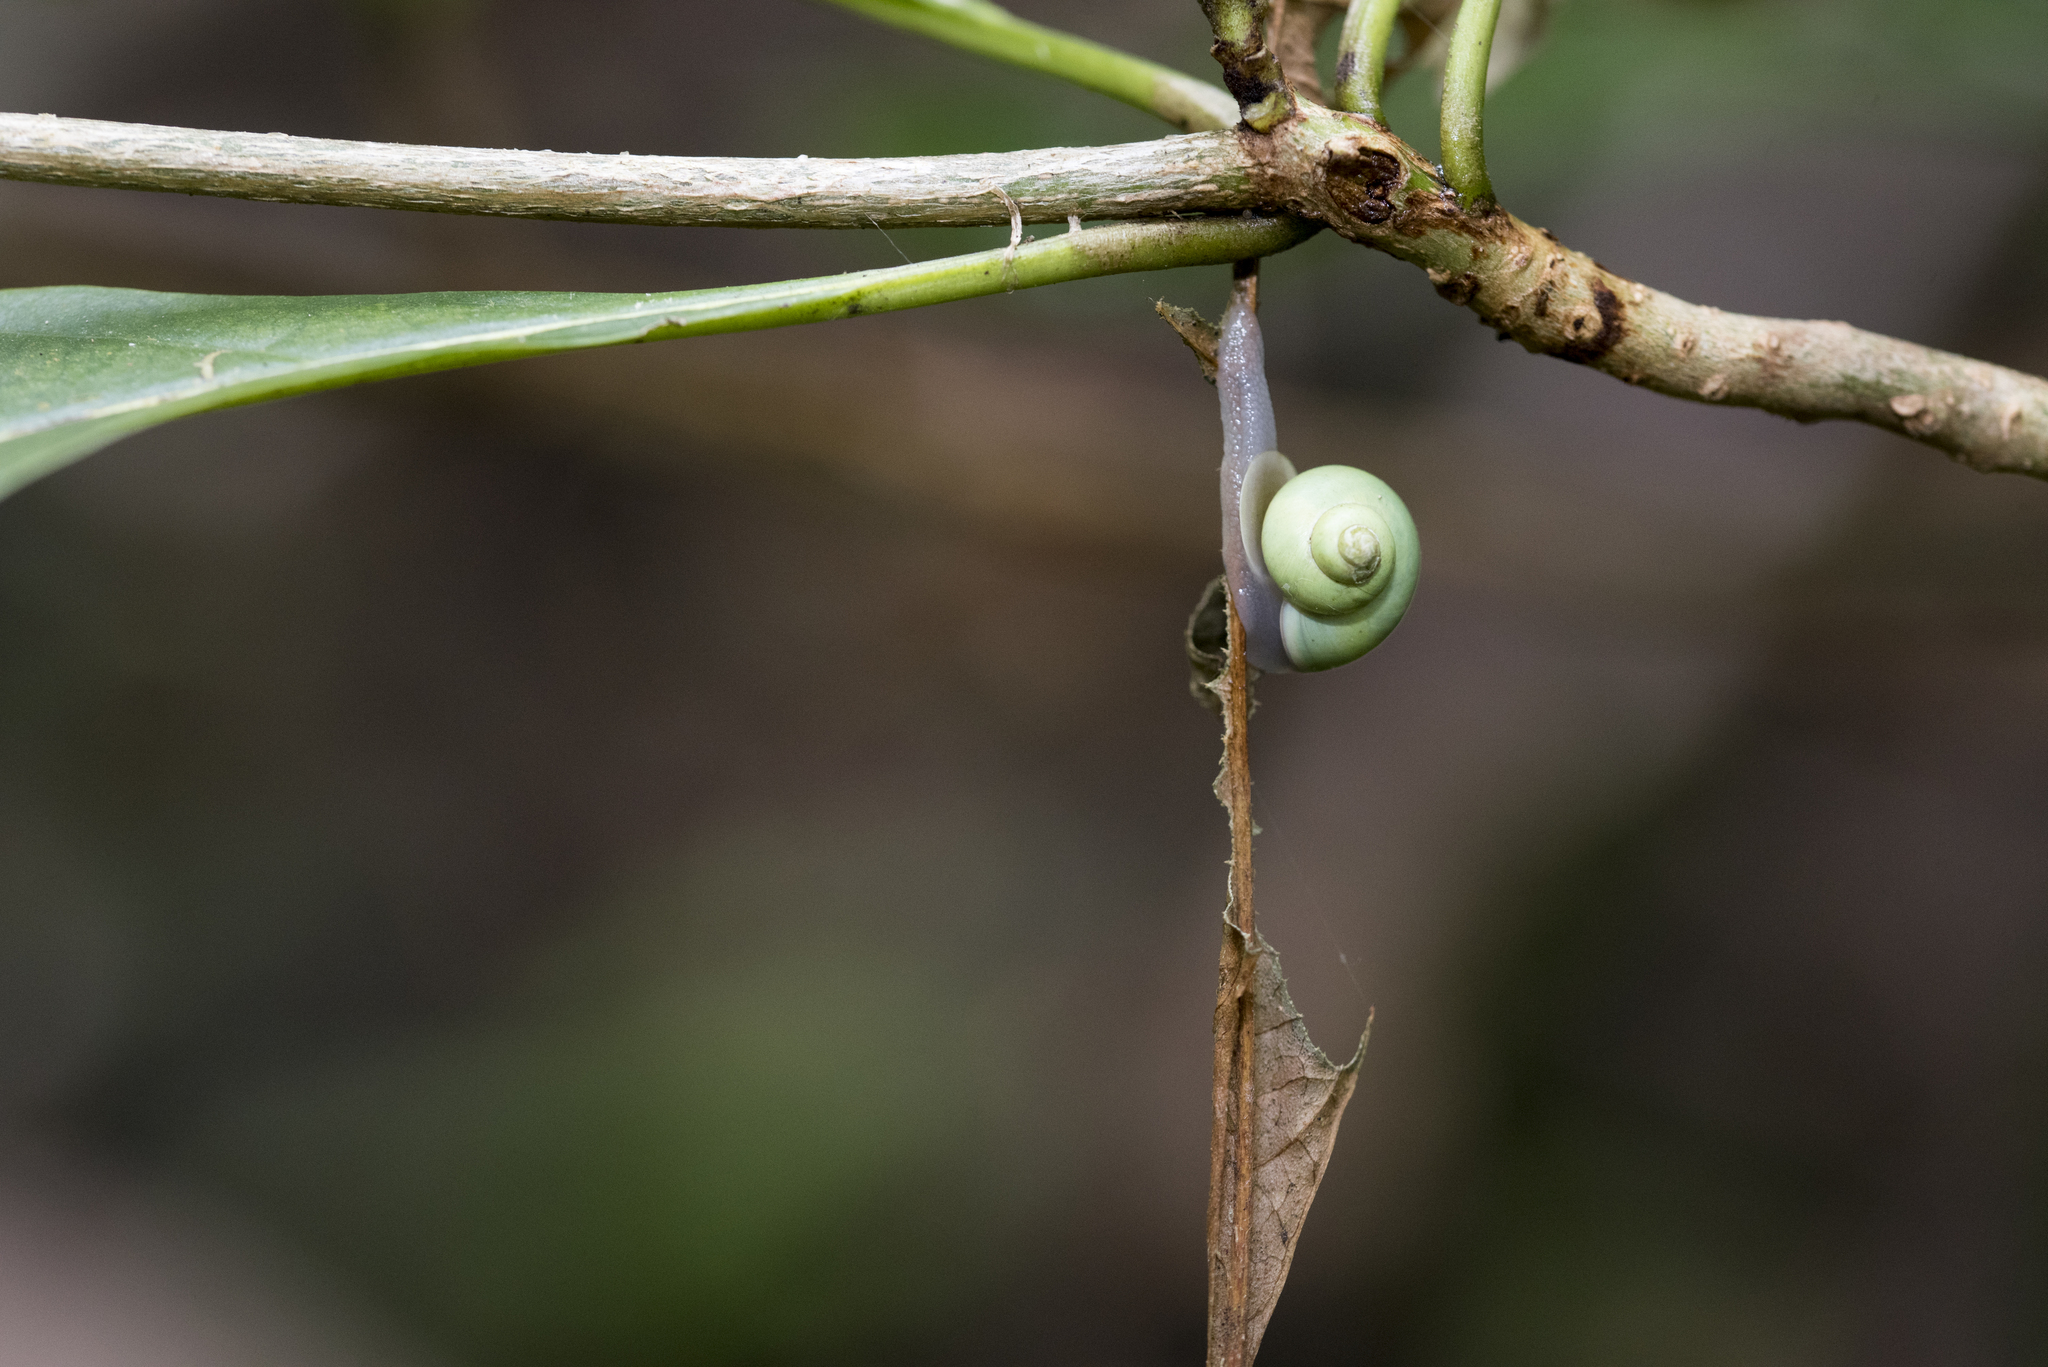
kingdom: Animalia
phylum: Mollusca
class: Gastropoda
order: Architaenioglossa
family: Cyclophoridae
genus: Leptopoma
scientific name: Leptopoma nitidum
